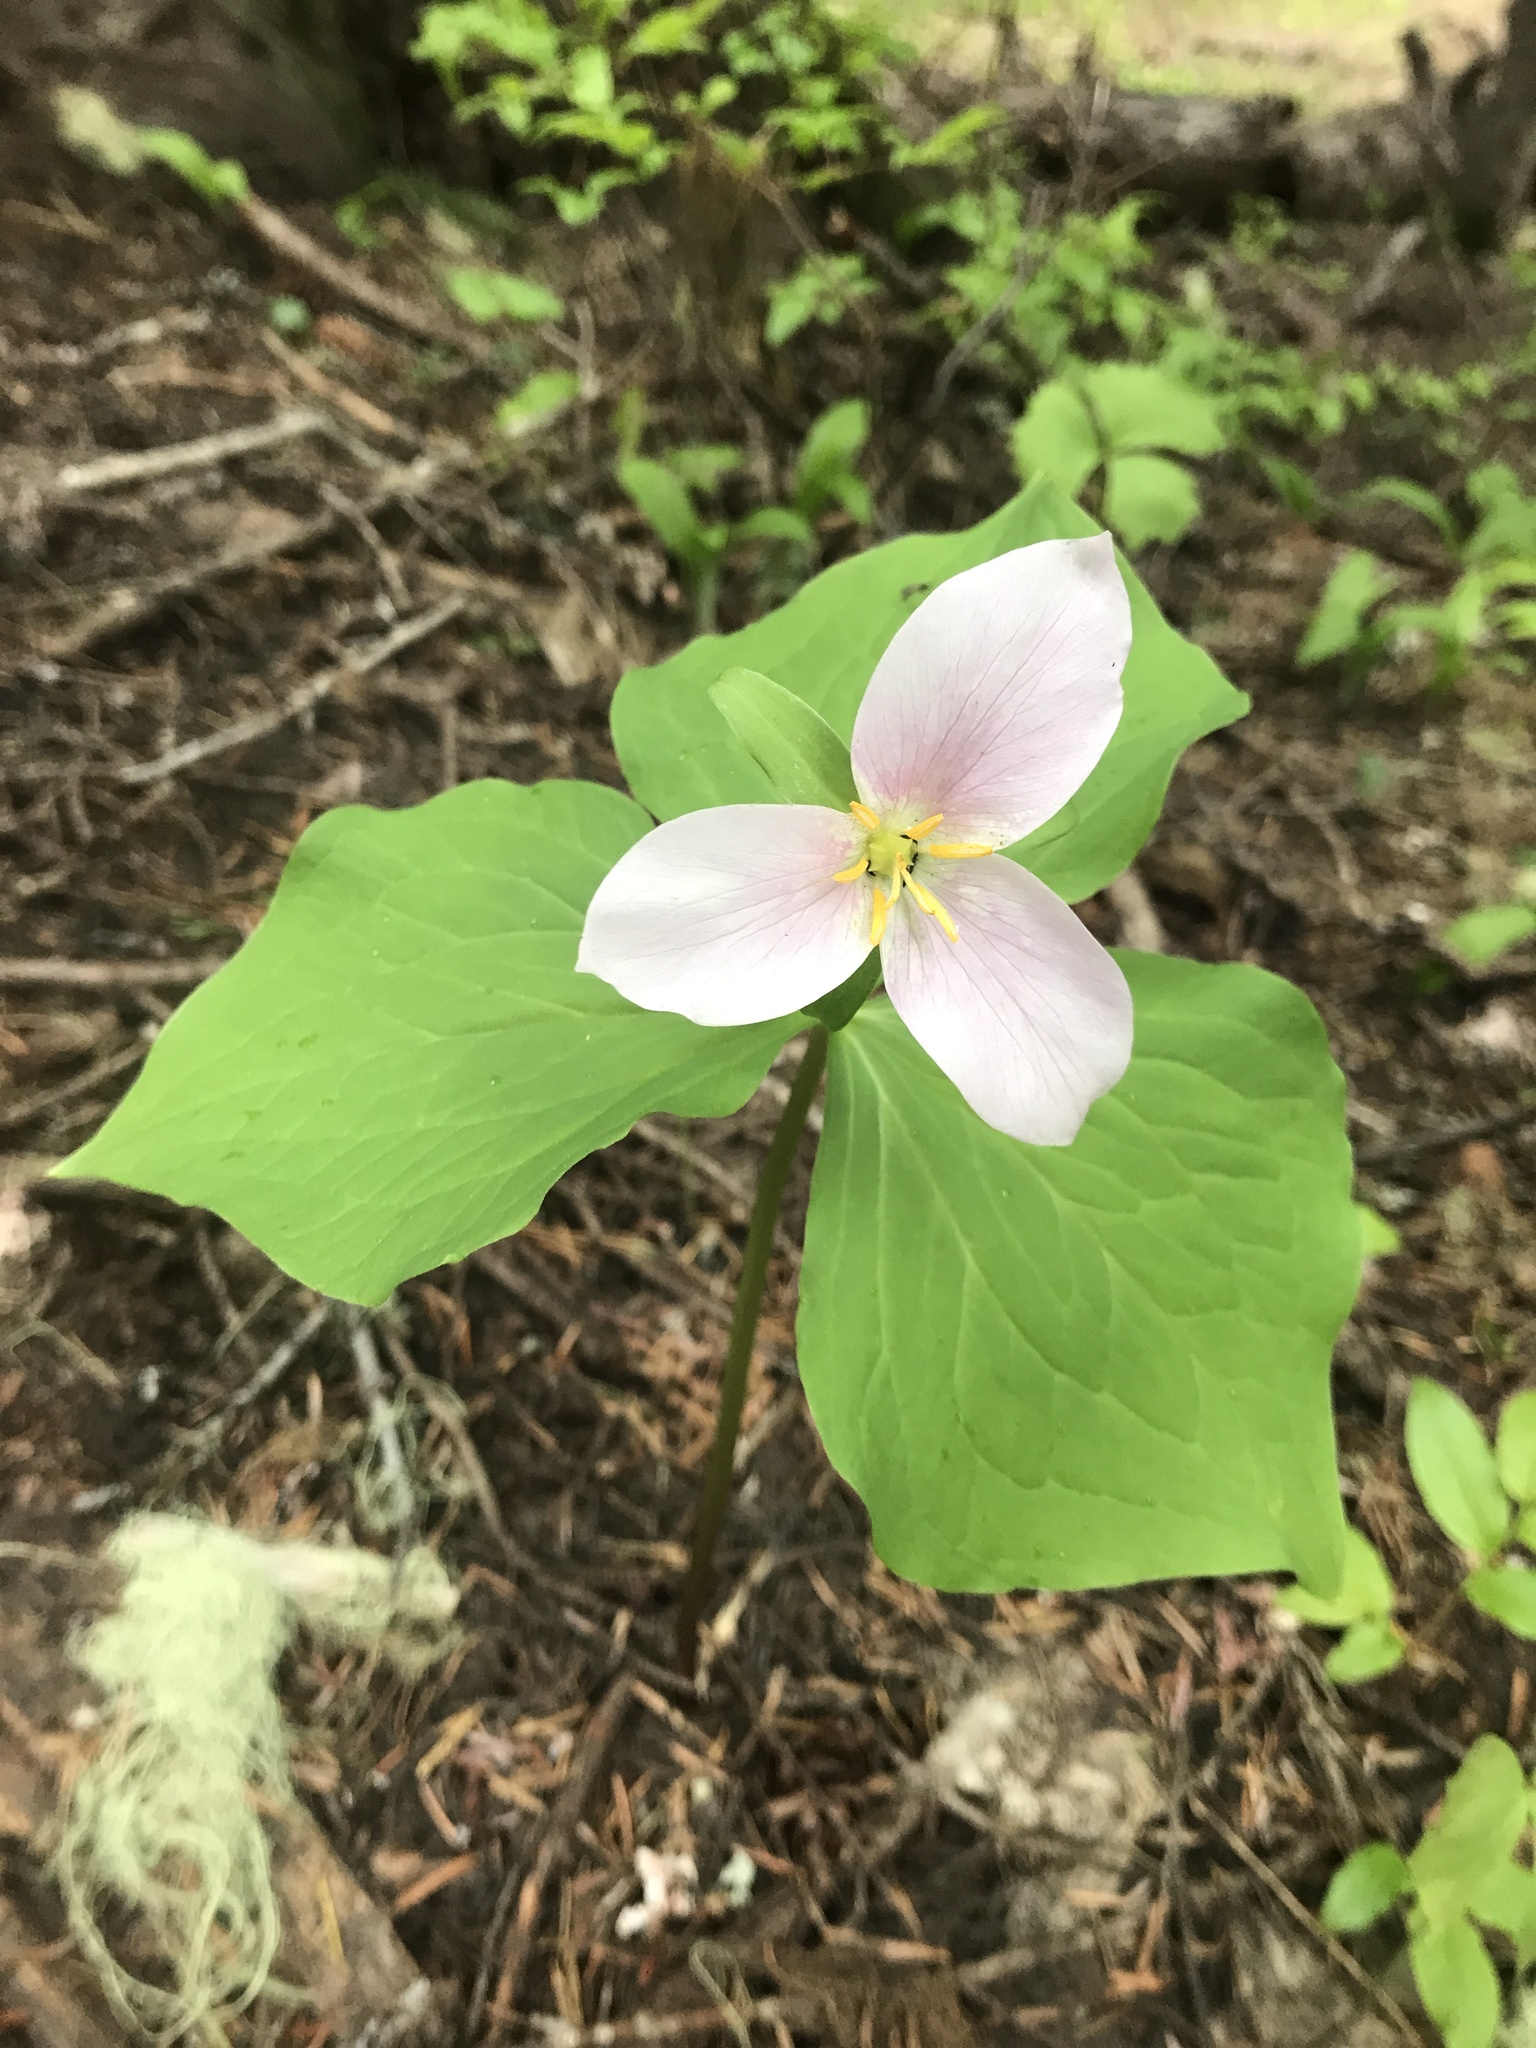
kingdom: Plantae
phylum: Tracheophyta
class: Liliopsida
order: Liliales
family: Melanthiaceae
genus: Trillium
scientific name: Trillium ovatum
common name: Pacific trillium
